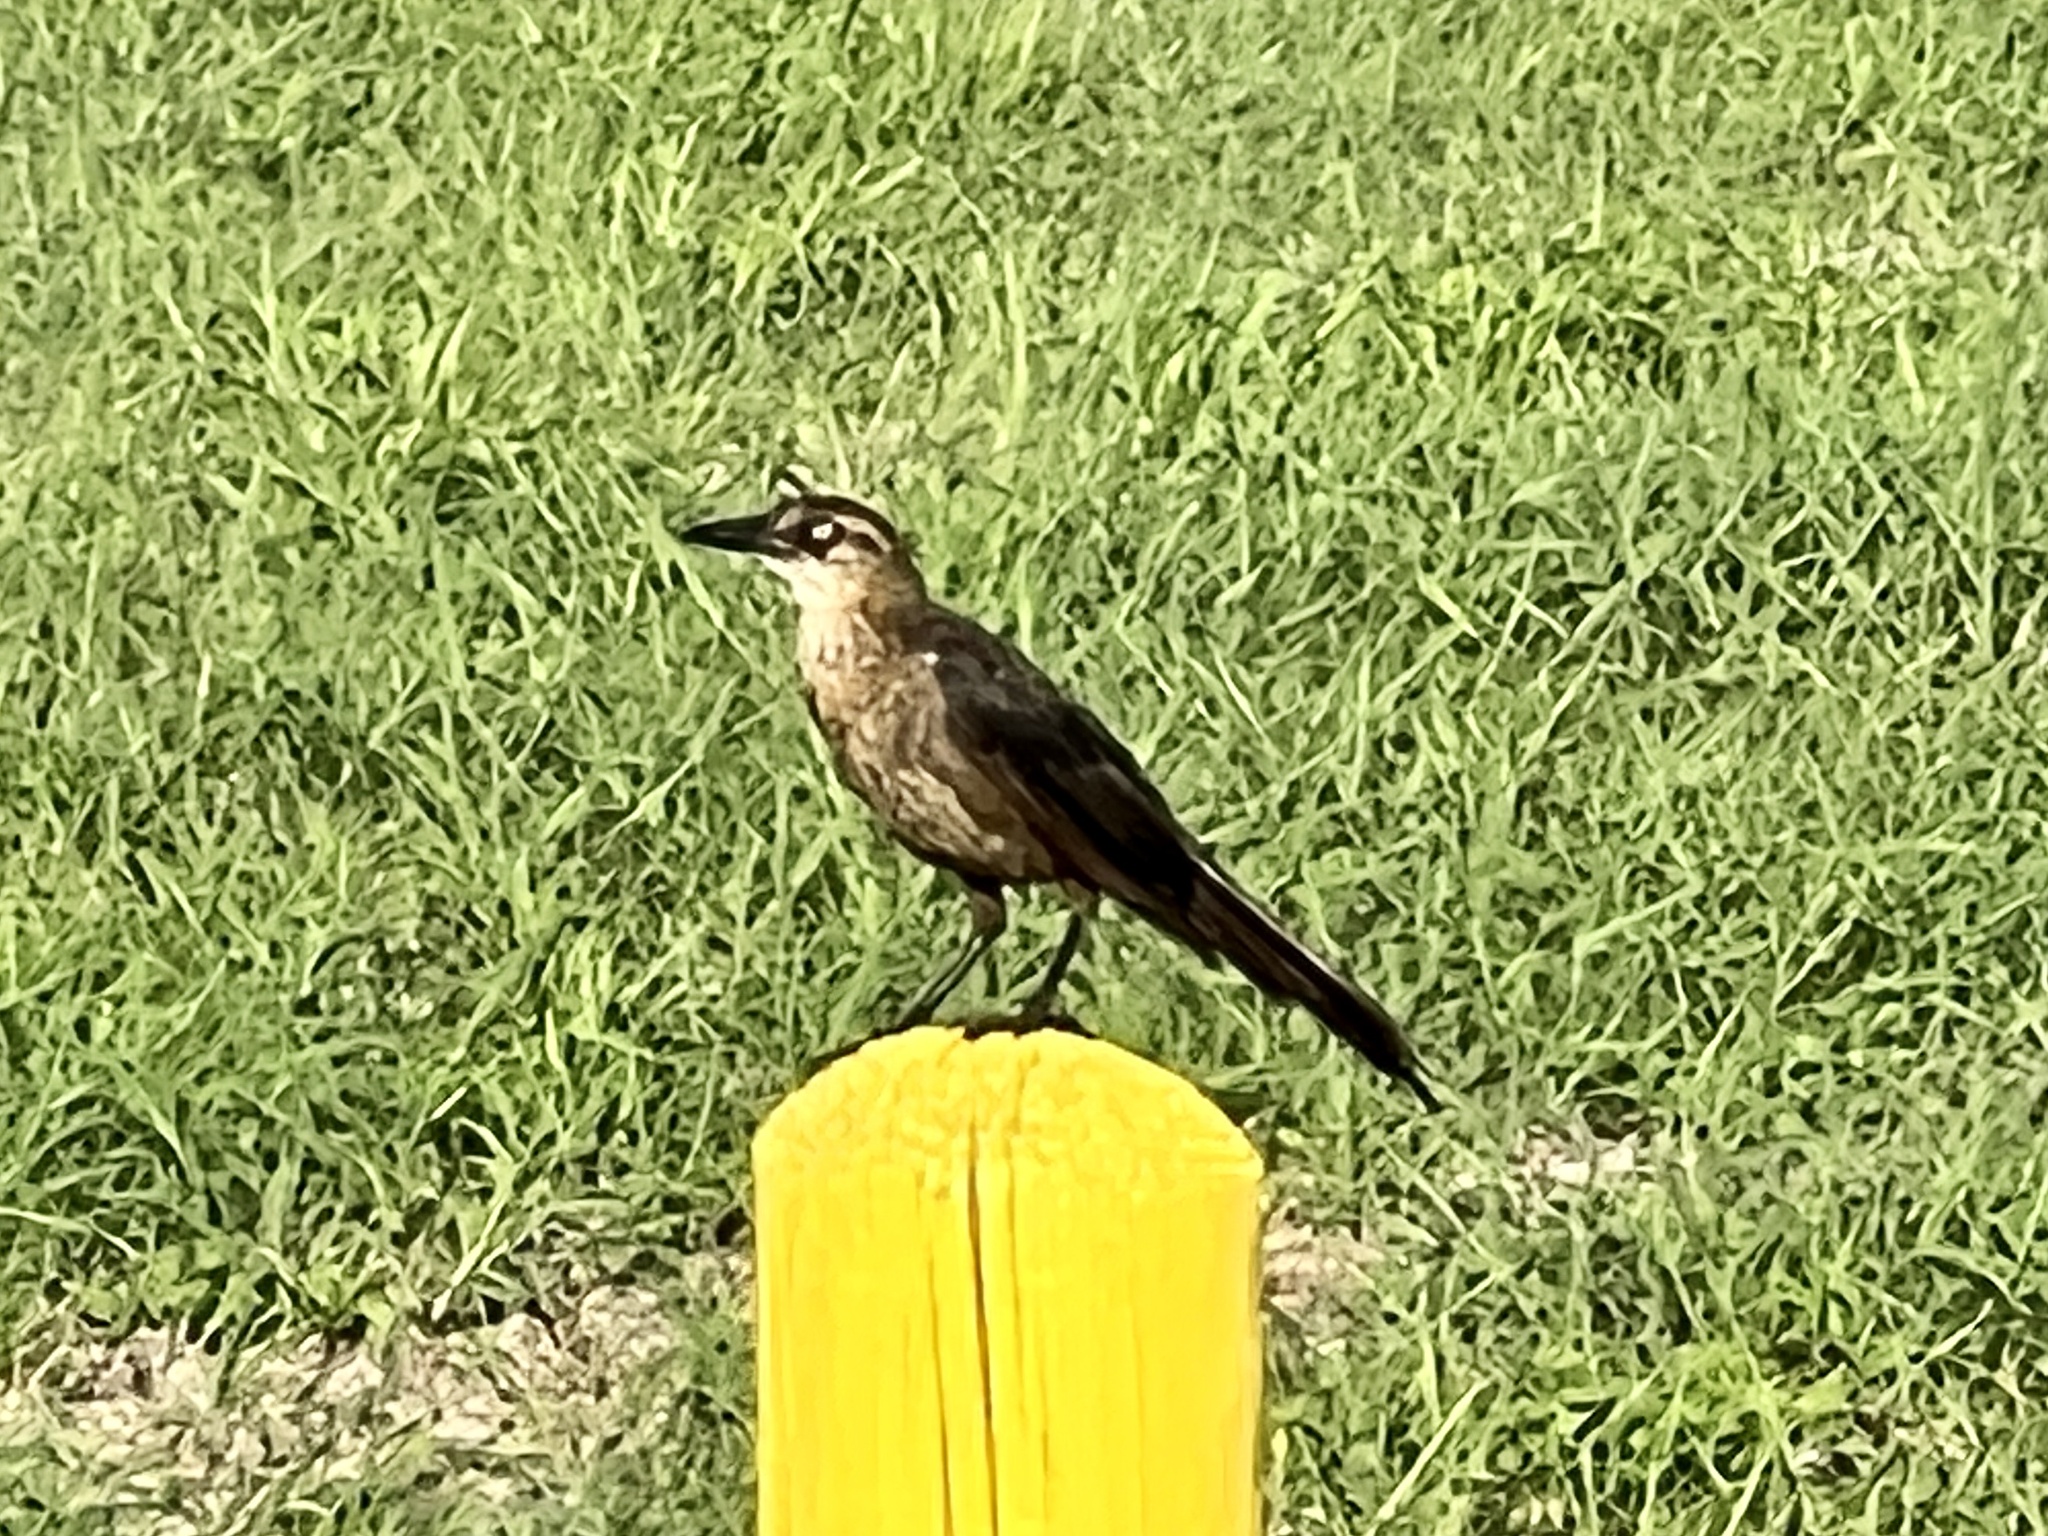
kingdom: Animalia
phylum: Chordata
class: Aves
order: Passeriformes
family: Icteridae
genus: Quiscalus
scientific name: Quiscalus mexicanus
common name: Great-tailed grackle
